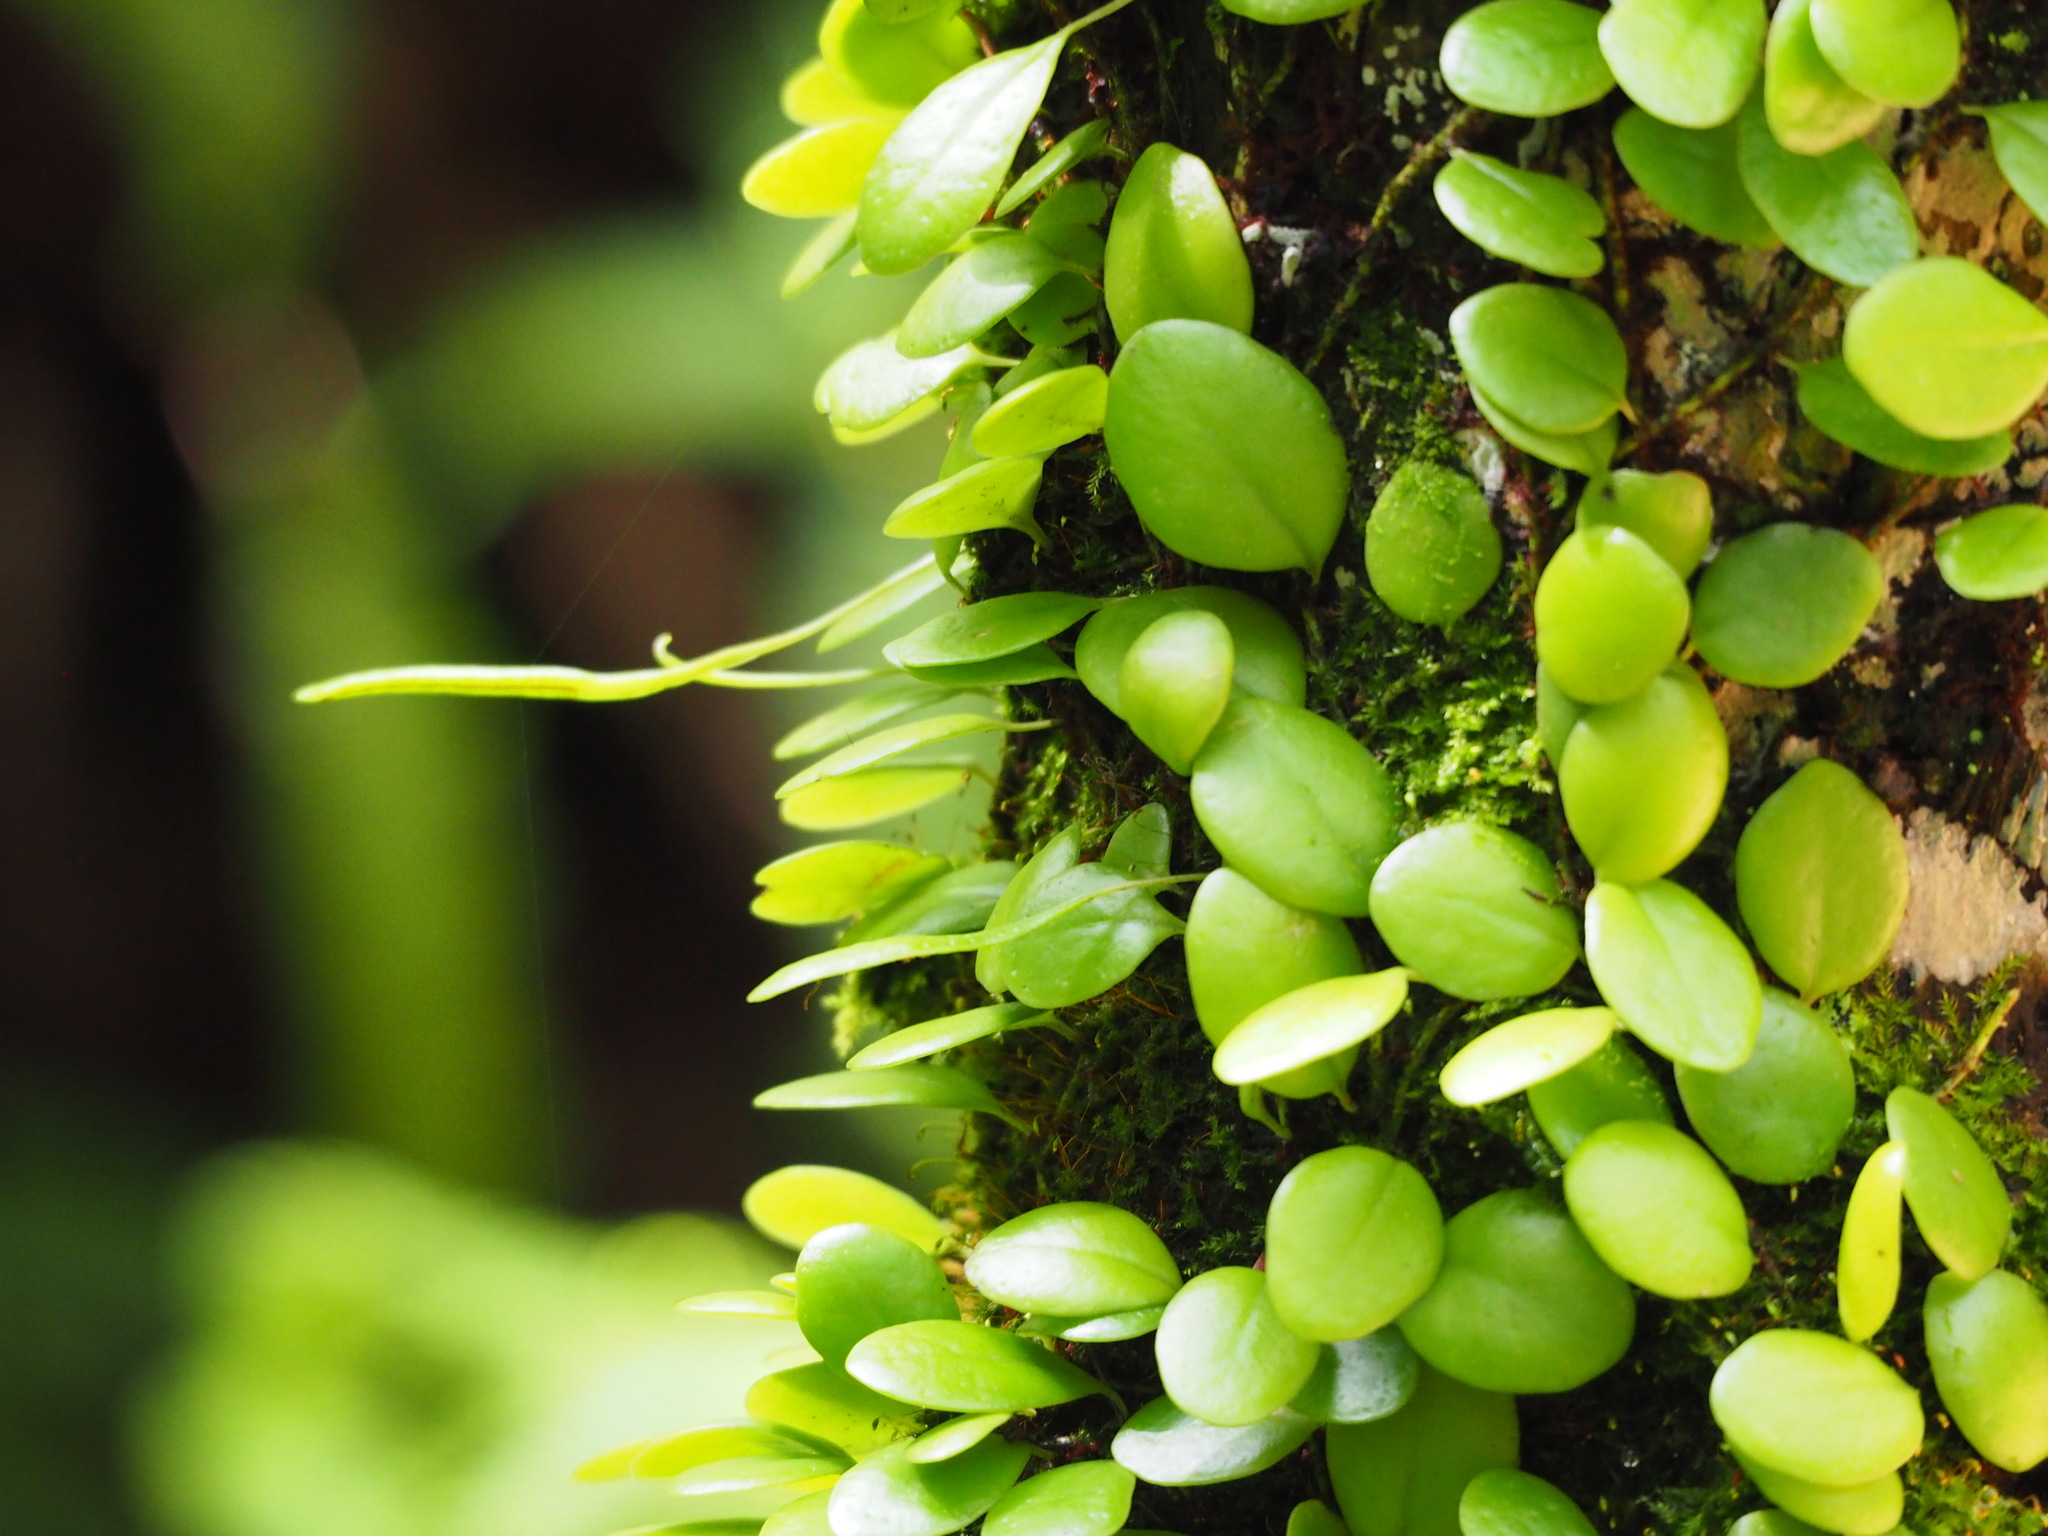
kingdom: Plantae
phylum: Tracheophyta
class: Polypodiopsida
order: Polypodiales
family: Polypodiaceae
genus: Lepisorus
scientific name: Lepisorus microphyllus
